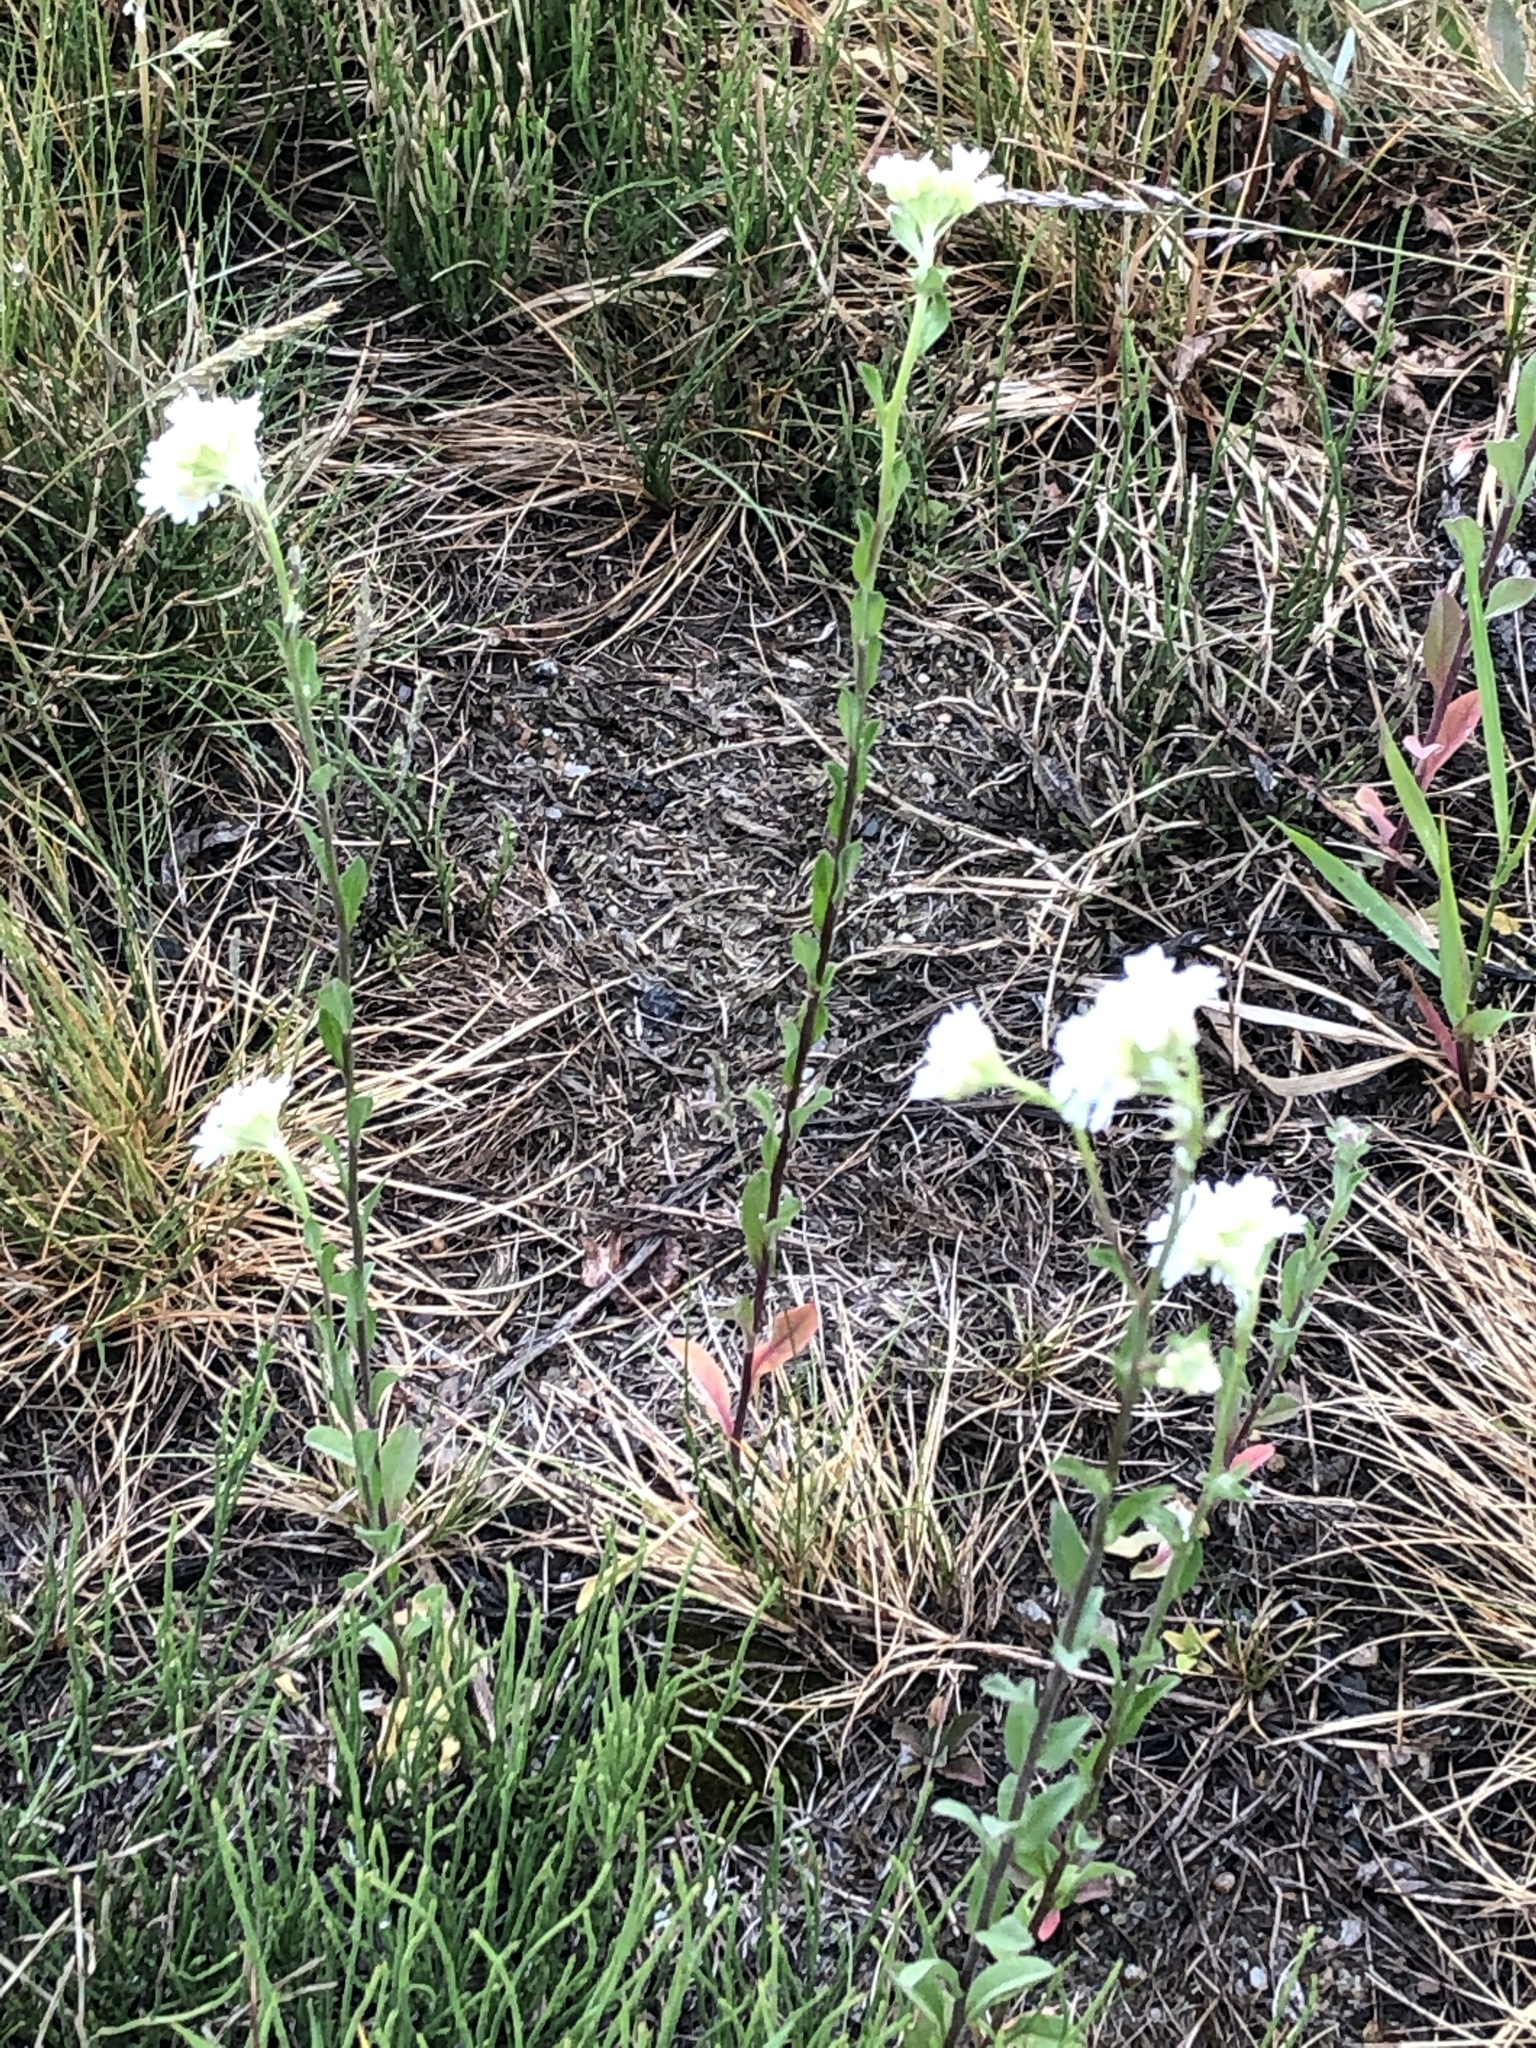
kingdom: Plantae
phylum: Tracheophyta
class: Magnoliopsida
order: Brassicales
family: Brassicaceae
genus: Berteroa
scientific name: Berteroa incana
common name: Hoary alison
